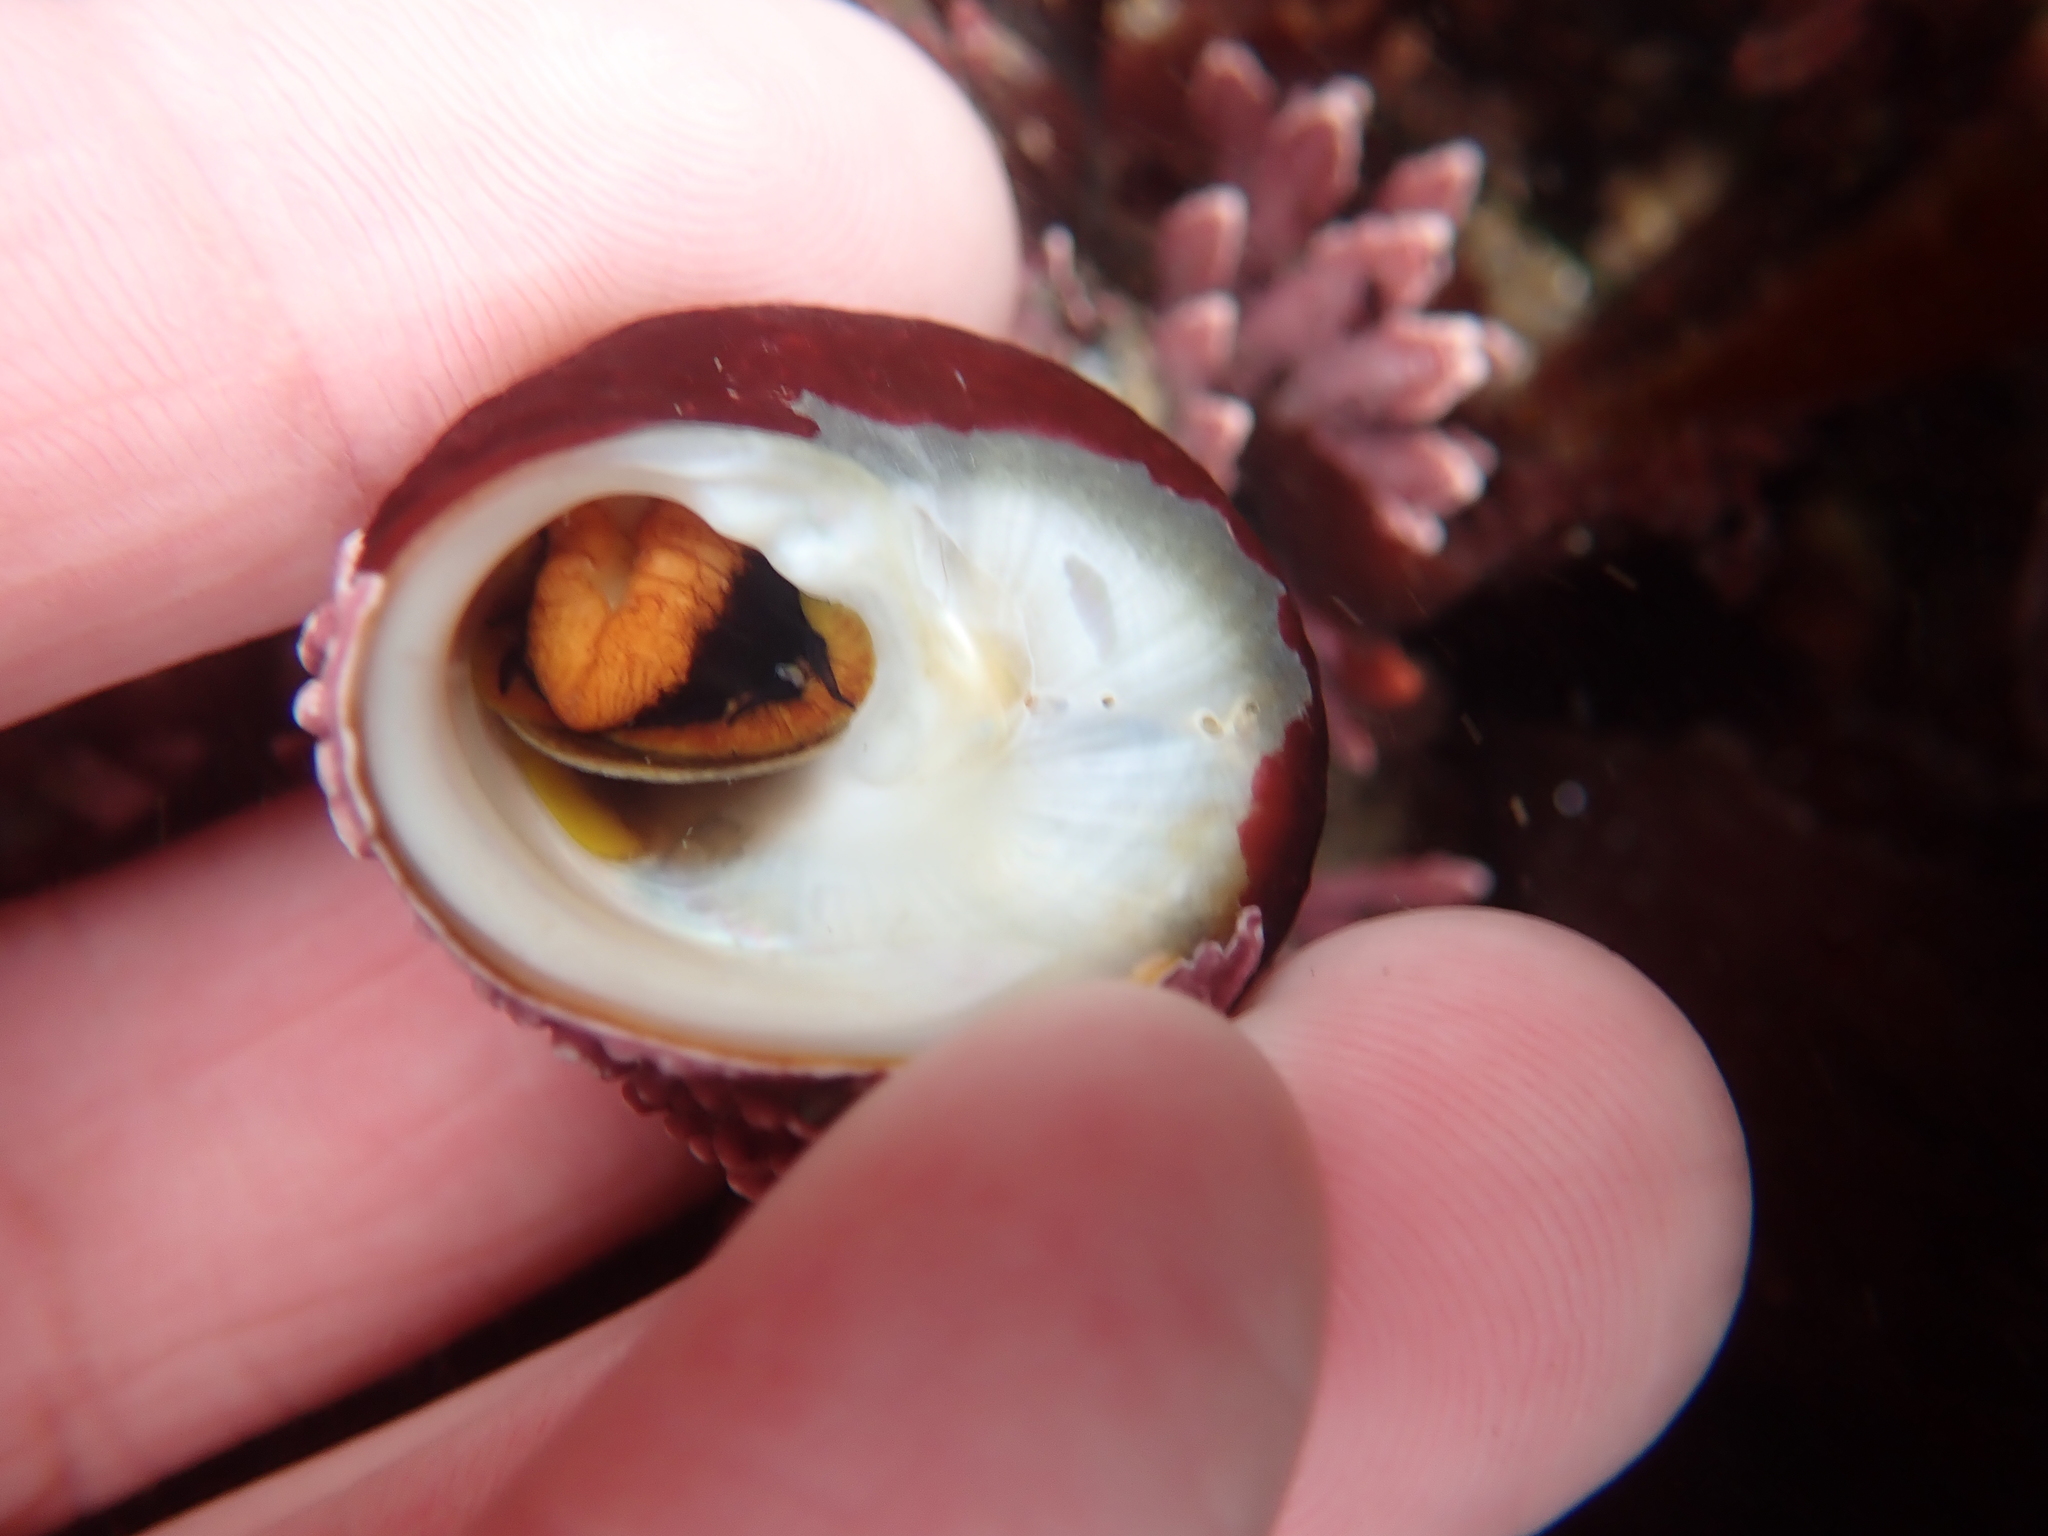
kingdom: Animalia
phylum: Mollusca
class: Gastropoda
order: Trochida
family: Tegulidae
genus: Tegula
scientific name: Tegula brunnea
